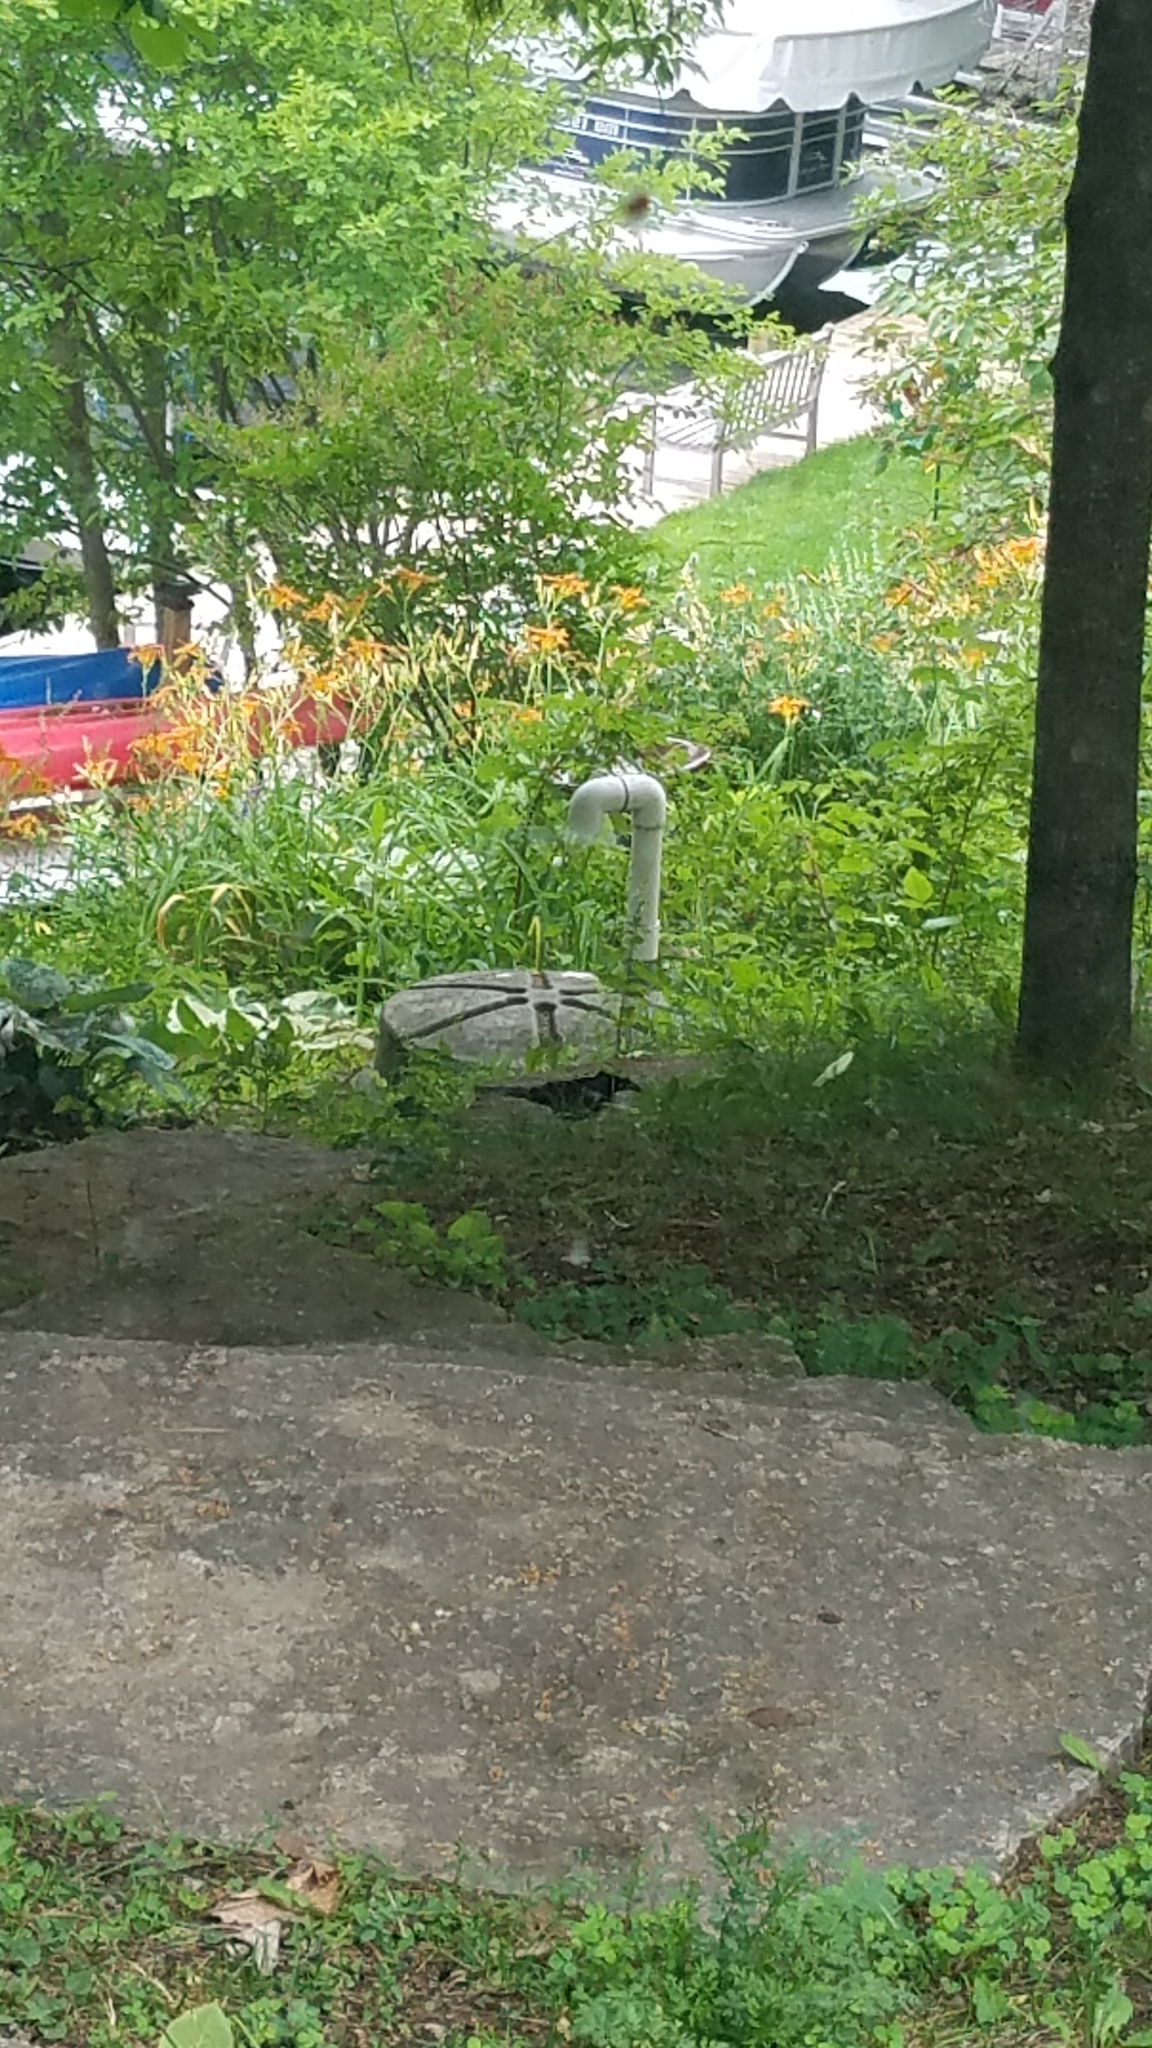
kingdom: Animalia
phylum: Chordata
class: Aves
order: Passeriformes
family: Icteridae
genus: Quiscalus
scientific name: Quiscalus quiscula
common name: Common grackle
